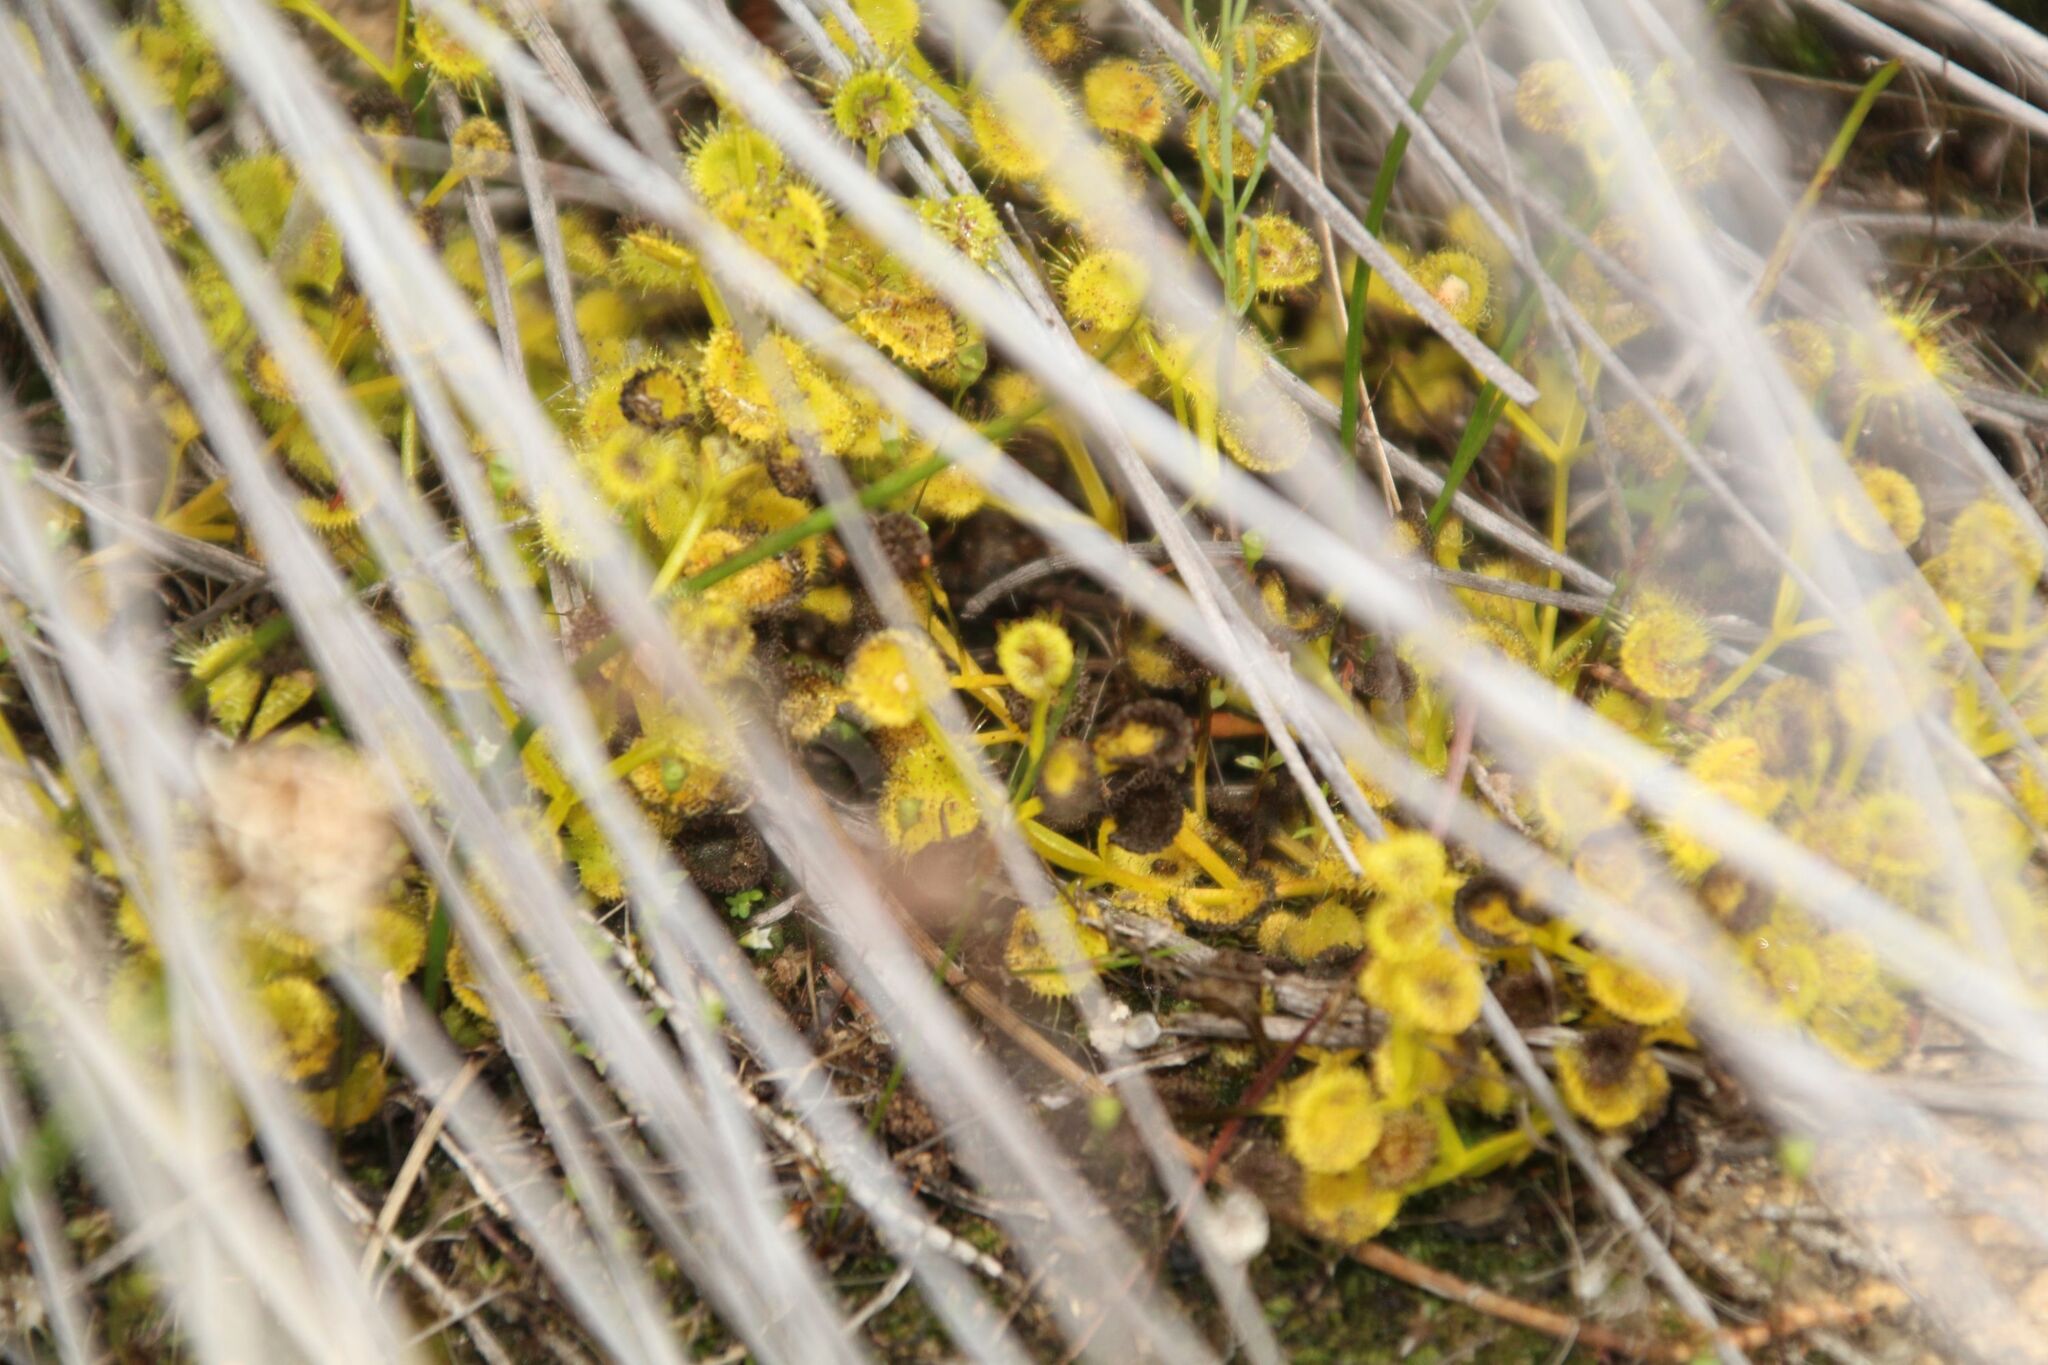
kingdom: Plantae
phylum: Tracheophyta
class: Magnoliopsida
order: Caryophyllales
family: Droseraceae
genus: Drosera
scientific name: Drosera rupicola
